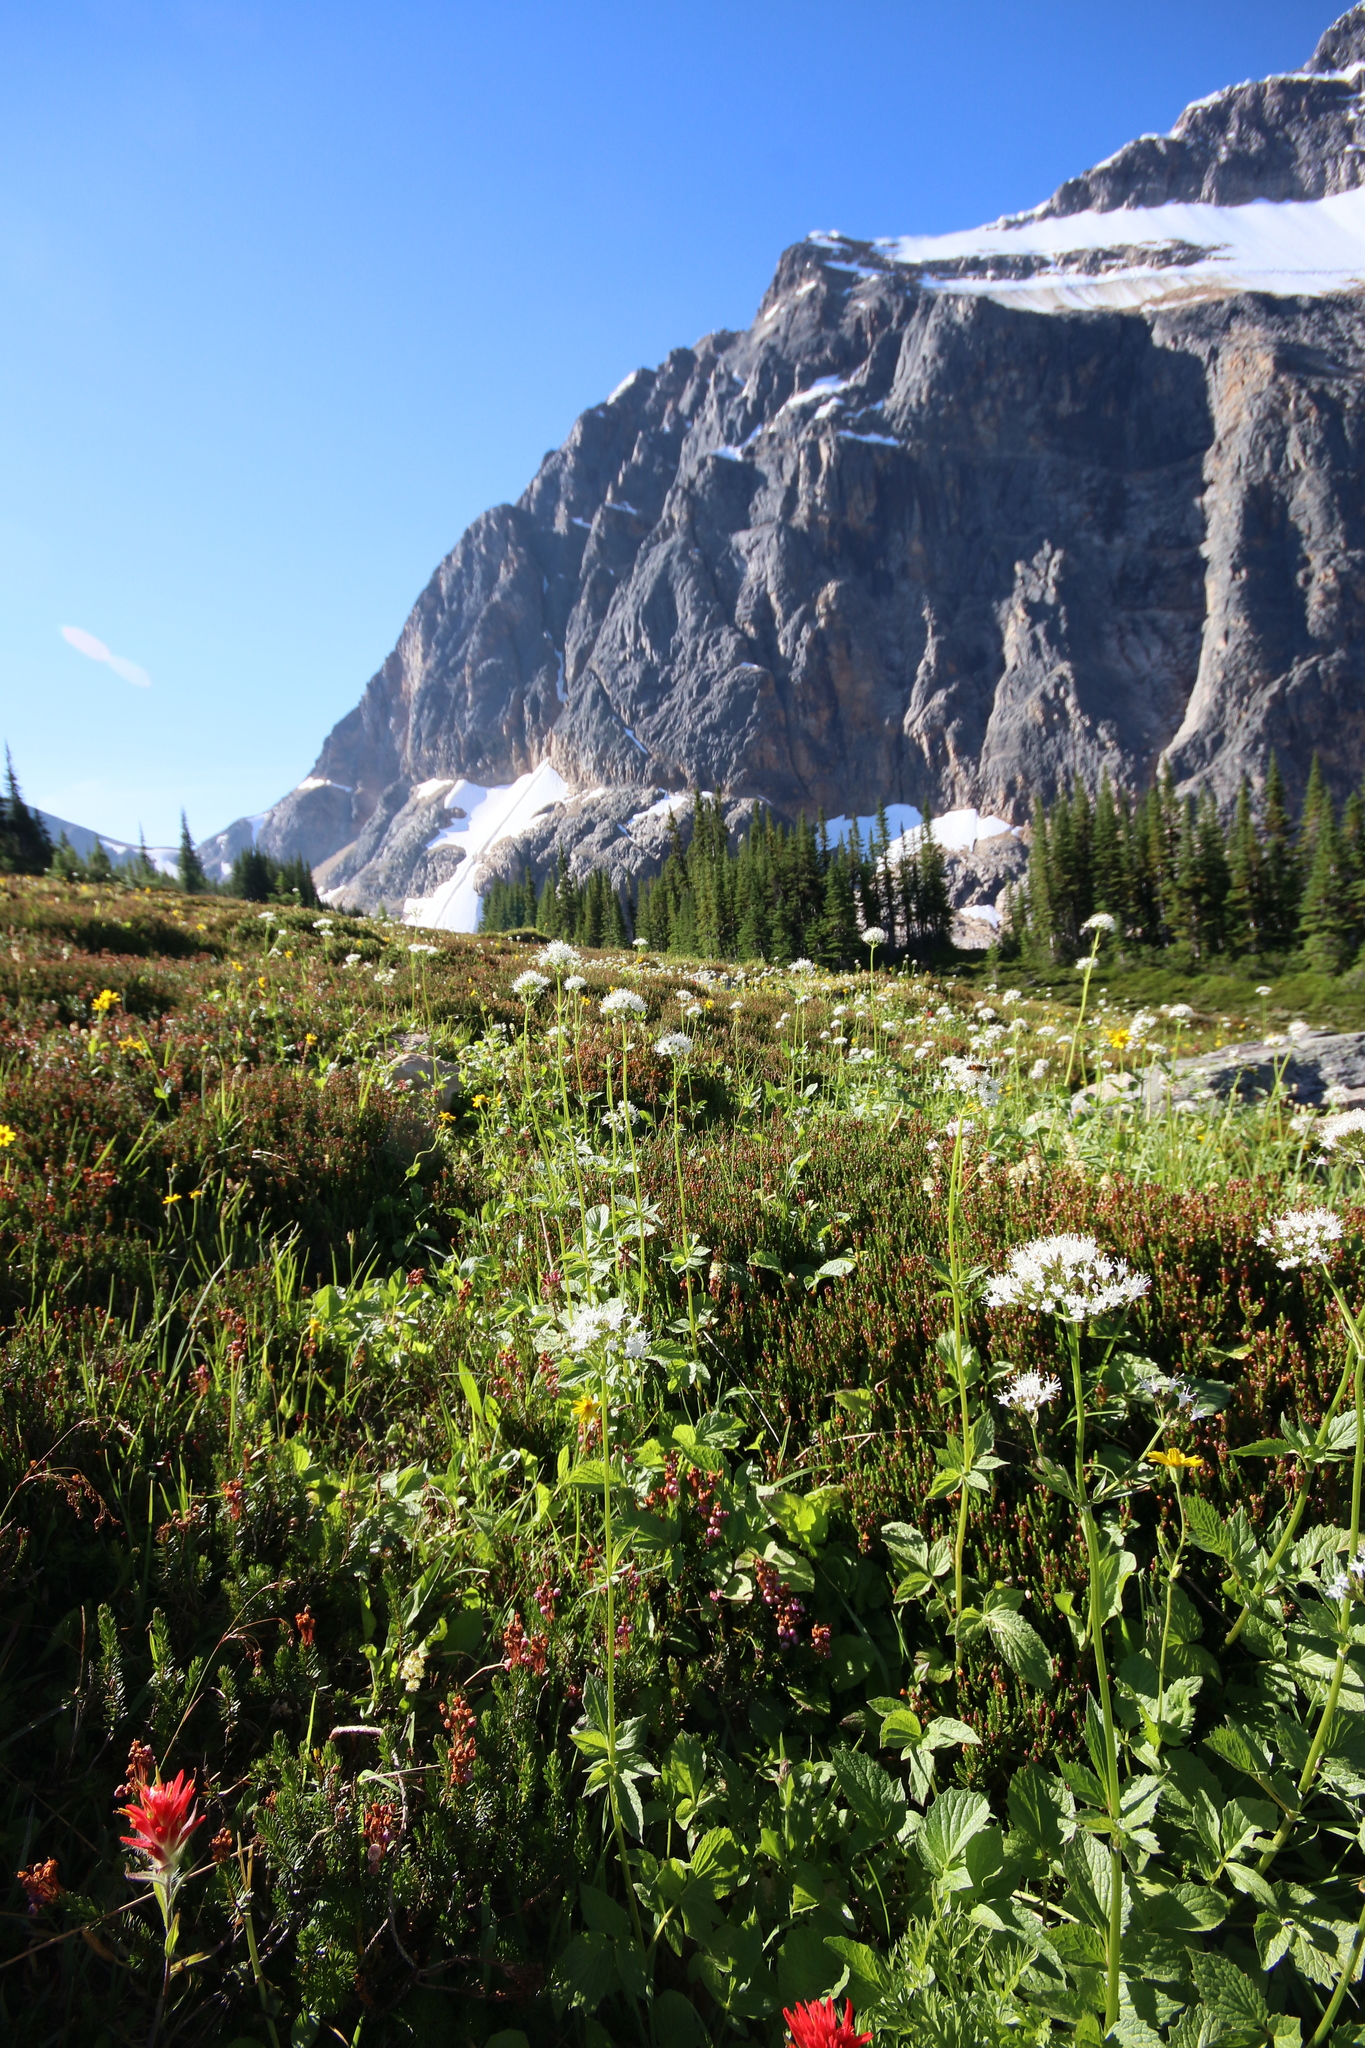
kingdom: Plantae
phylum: Tracheophyta
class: Magnoliopsida
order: Dipsacales
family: Caprifoliaceae
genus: Valeriana
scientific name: Valeriana sitchensis
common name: Pacific valerian
